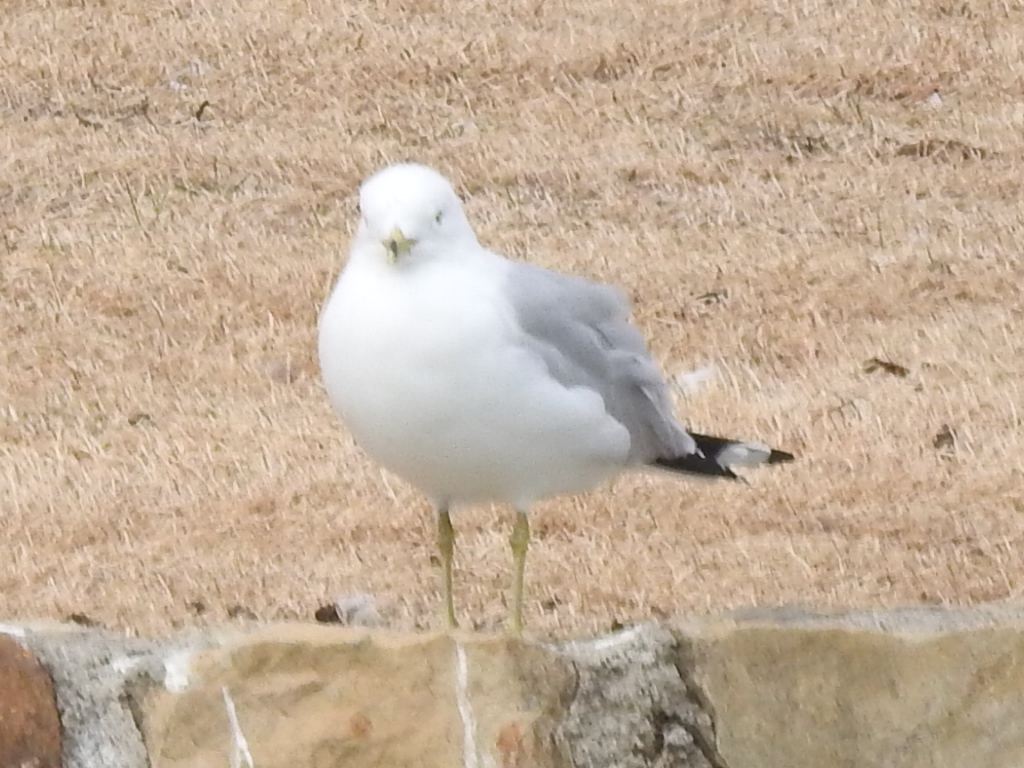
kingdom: Animalia
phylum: Chordata
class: Aves
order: Charadriiformes
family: Laridae
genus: Larus
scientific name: Larus delawarensis
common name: Ring-billed gull
